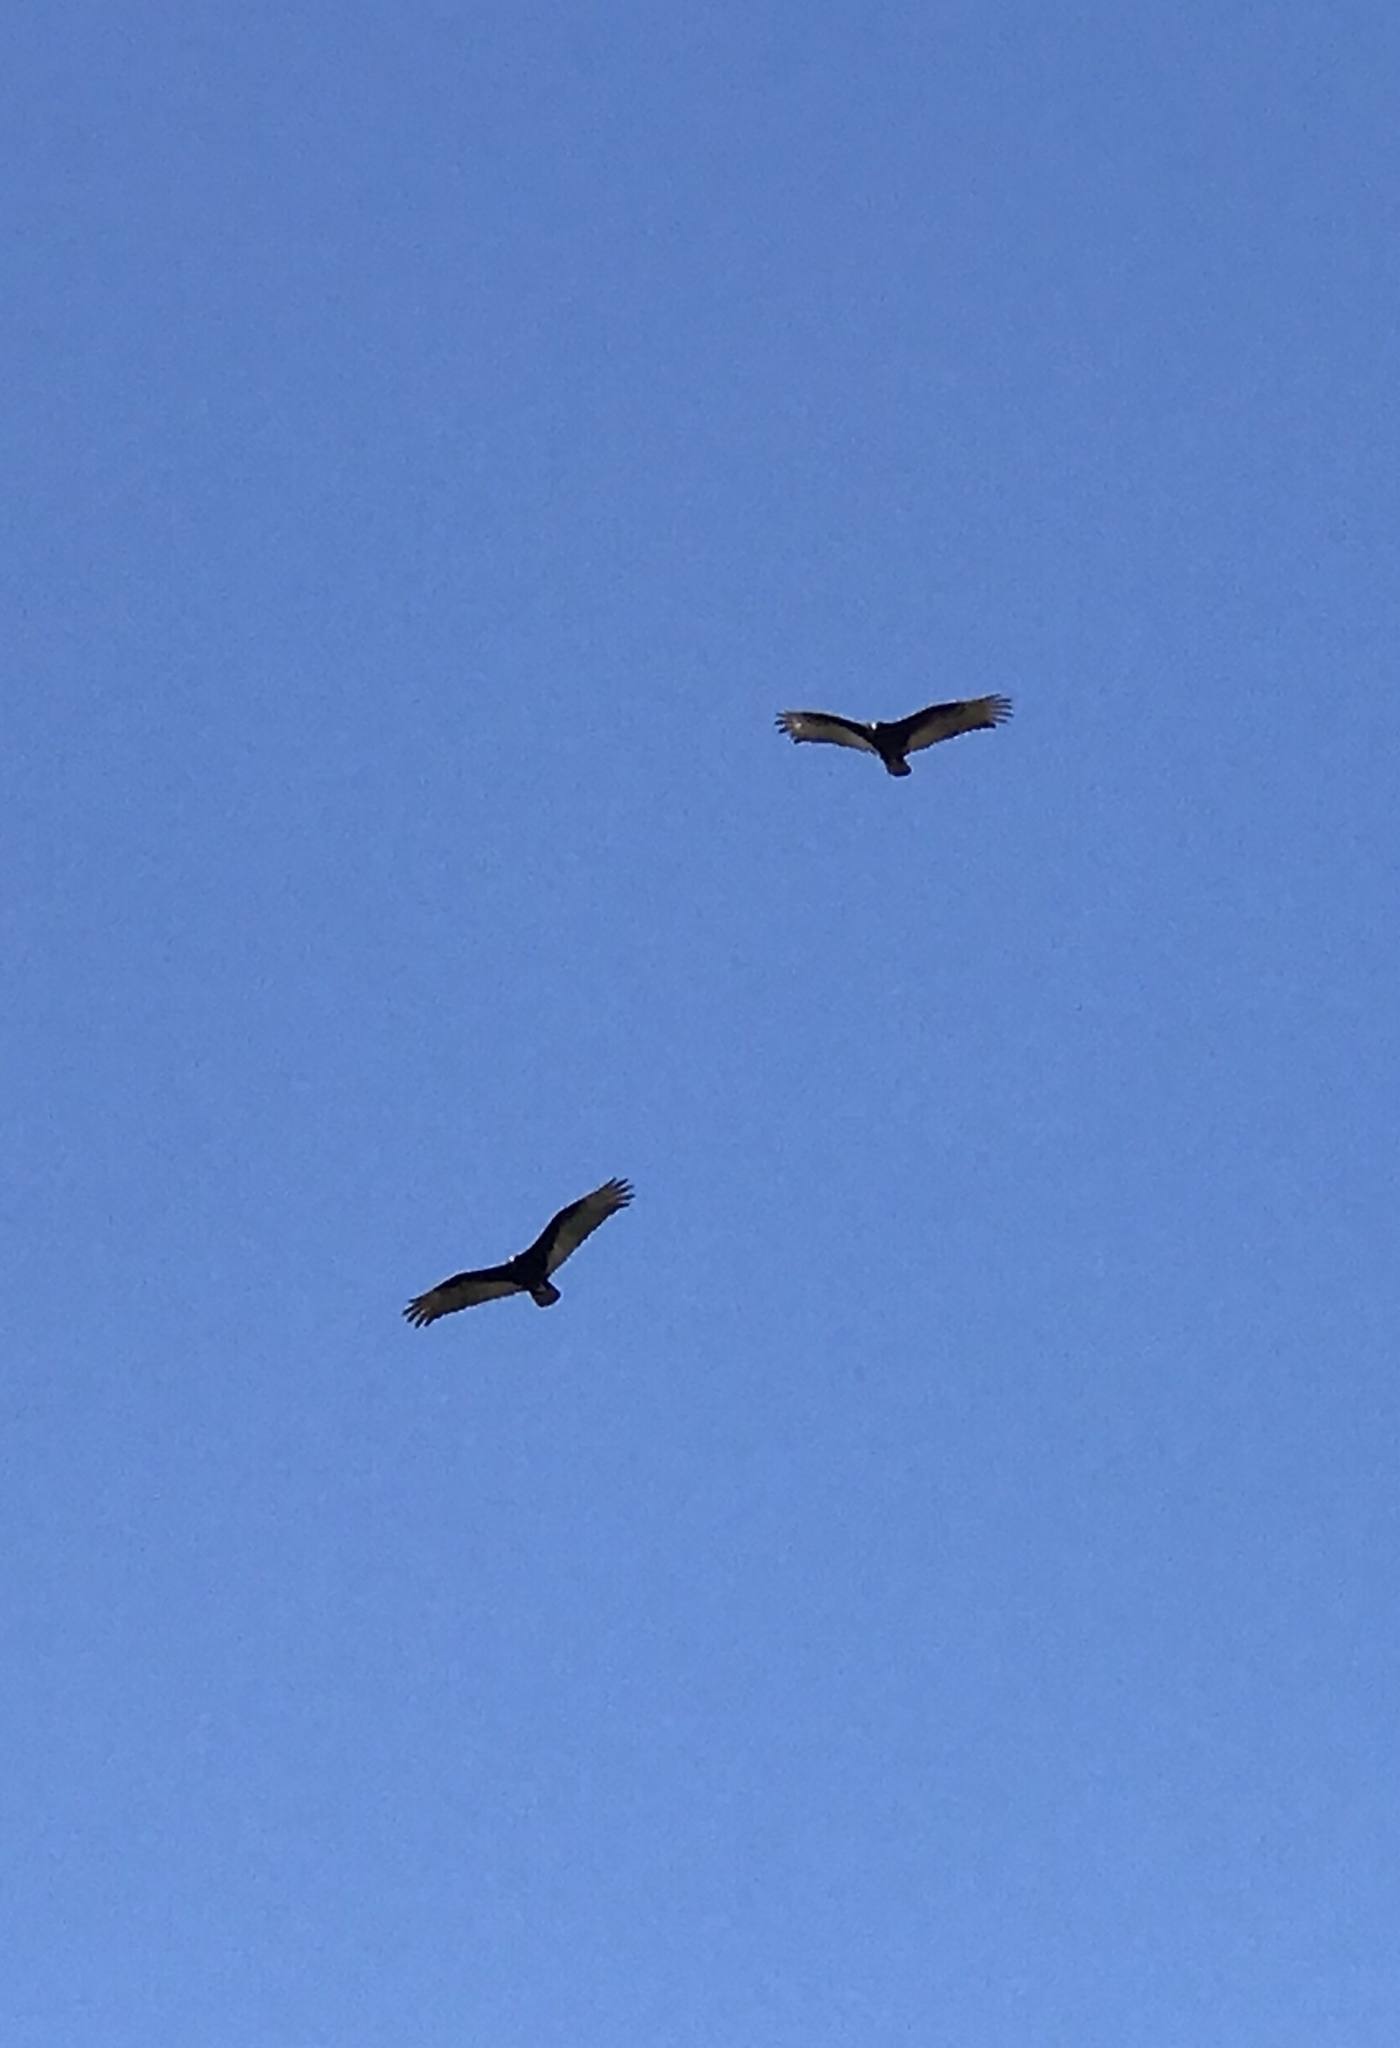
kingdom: Animalia
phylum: Chordata
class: Aves
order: Accipitriformes
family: Cathartidae
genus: Cathartes
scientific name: Cathartes aura
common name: Turkey vulture
